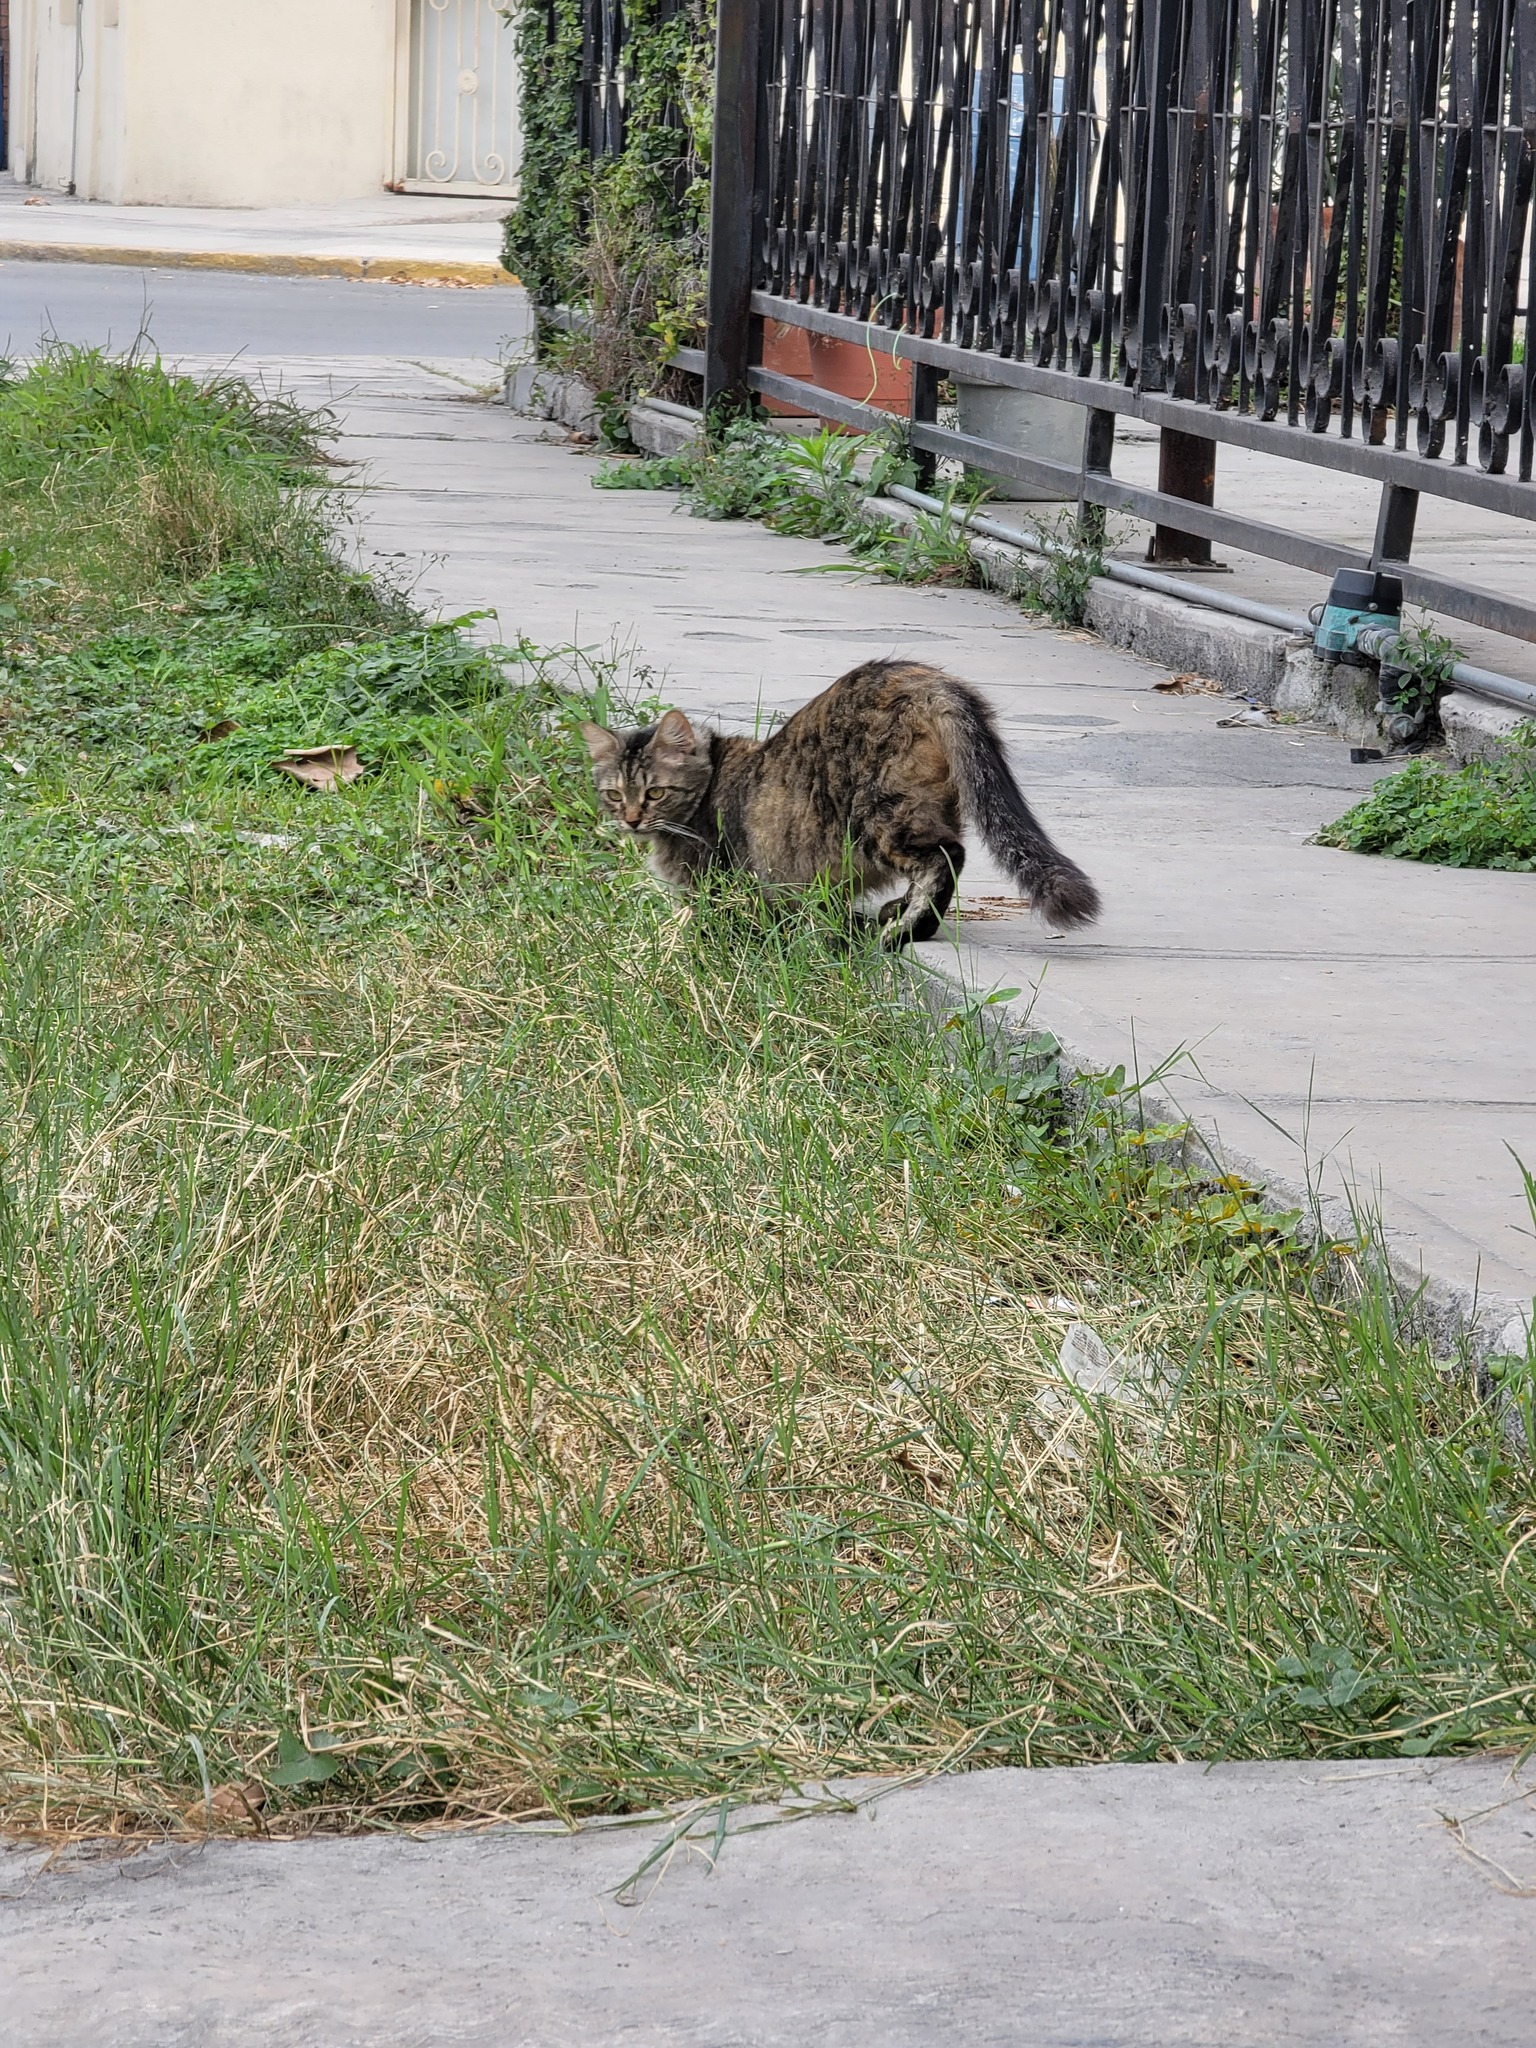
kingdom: Animalia
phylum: Chordata
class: Mammalia
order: Carnivora
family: Felidae
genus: Felis
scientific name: Felis catus
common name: Domestic cat
